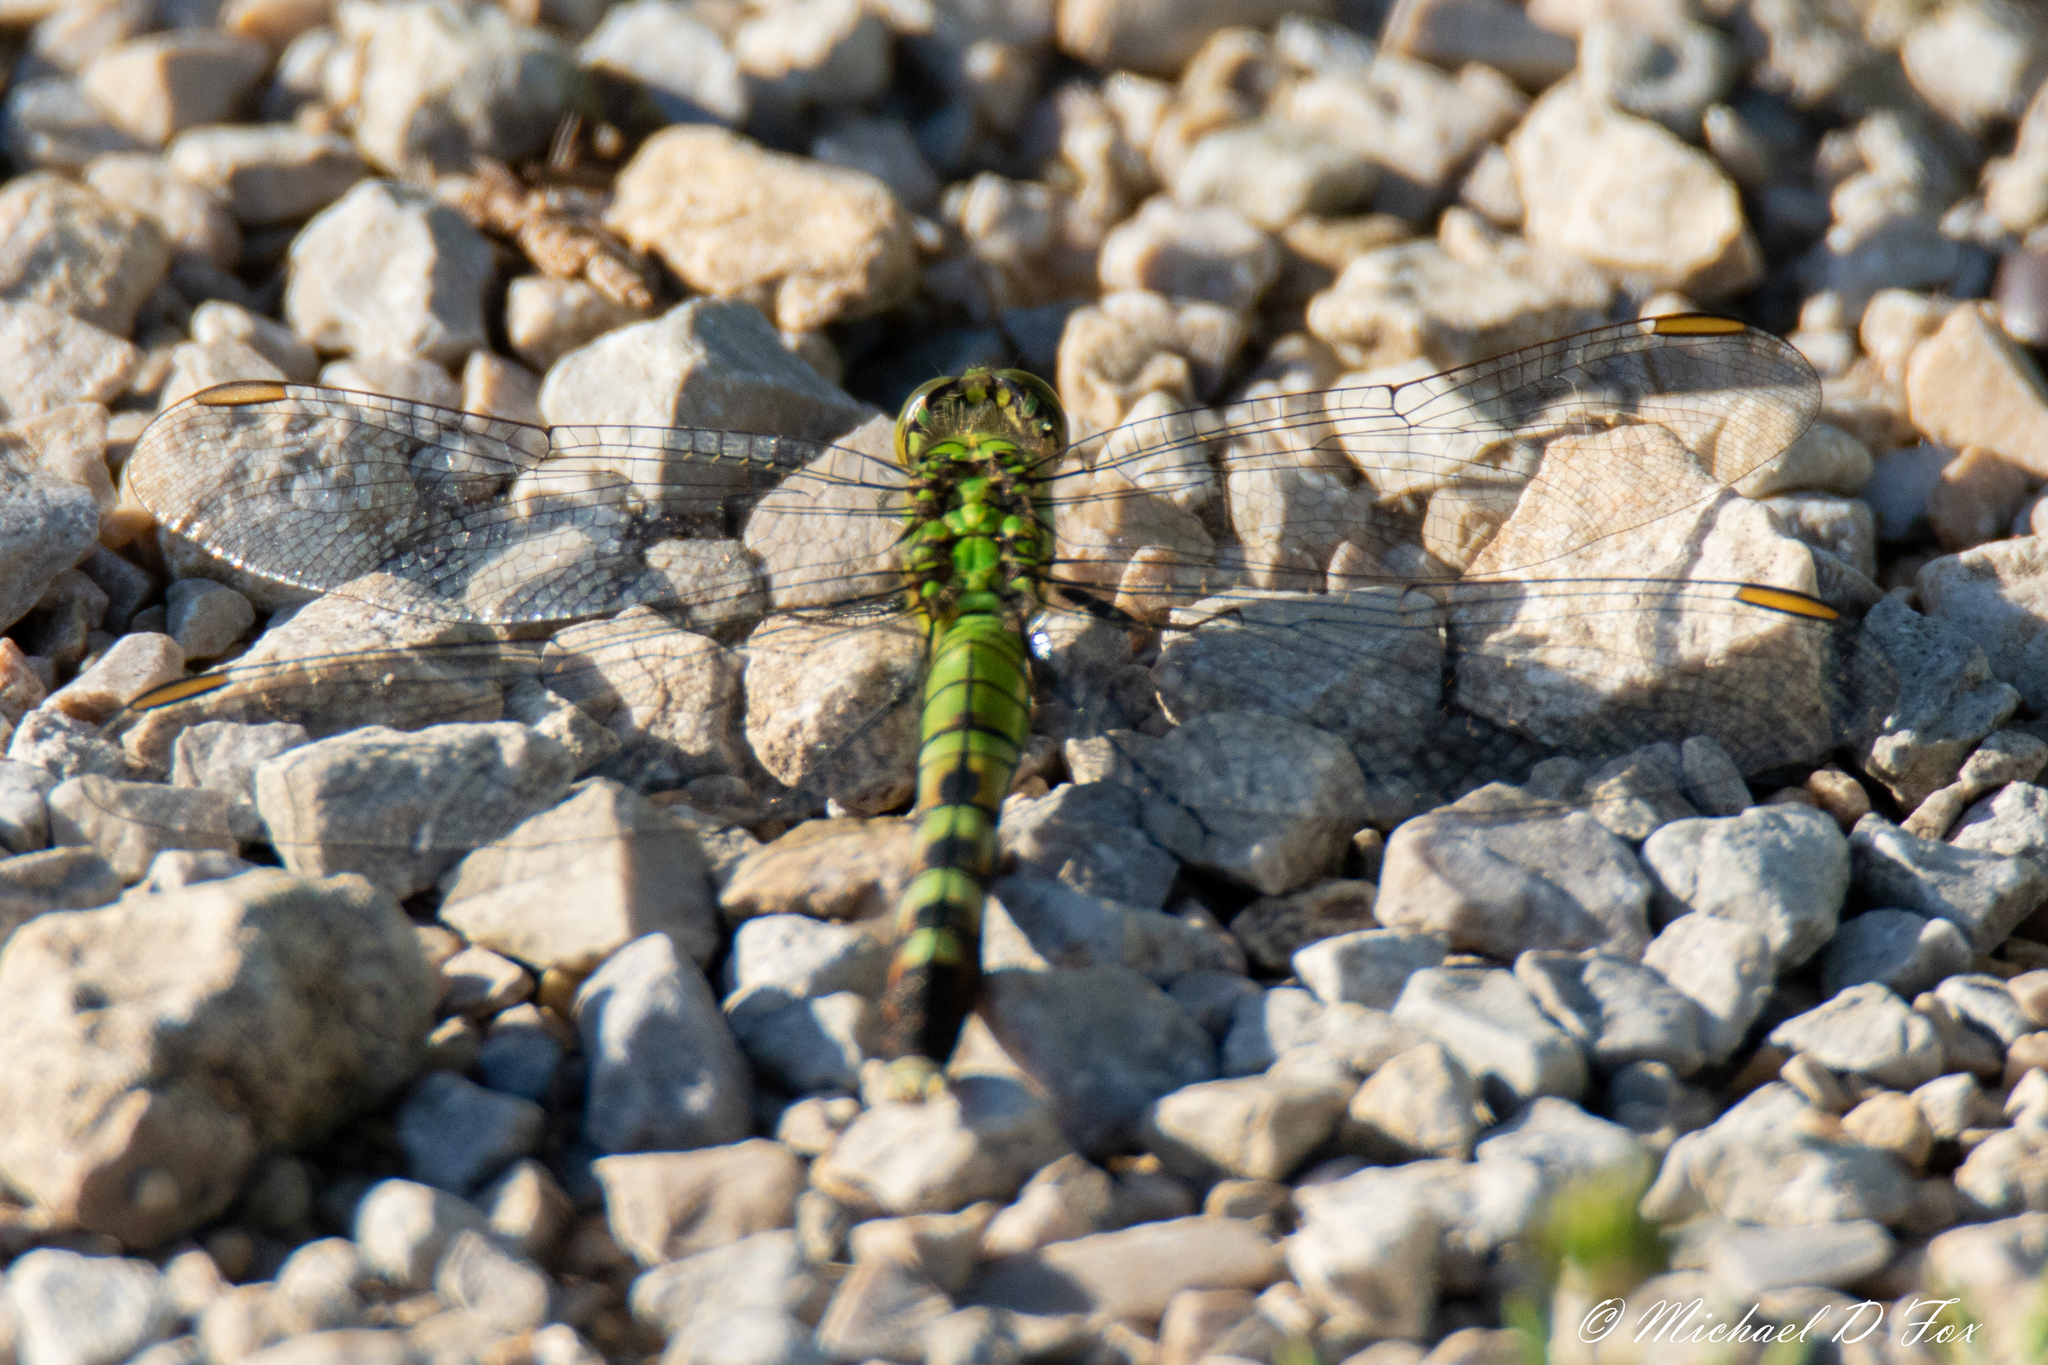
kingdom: Animalia
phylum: Arthropoda
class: Insecta
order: Odonata
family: Libellulidae
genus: Erythemis
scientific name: Erythemis simplicicollis
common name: Eastern pondhawk
